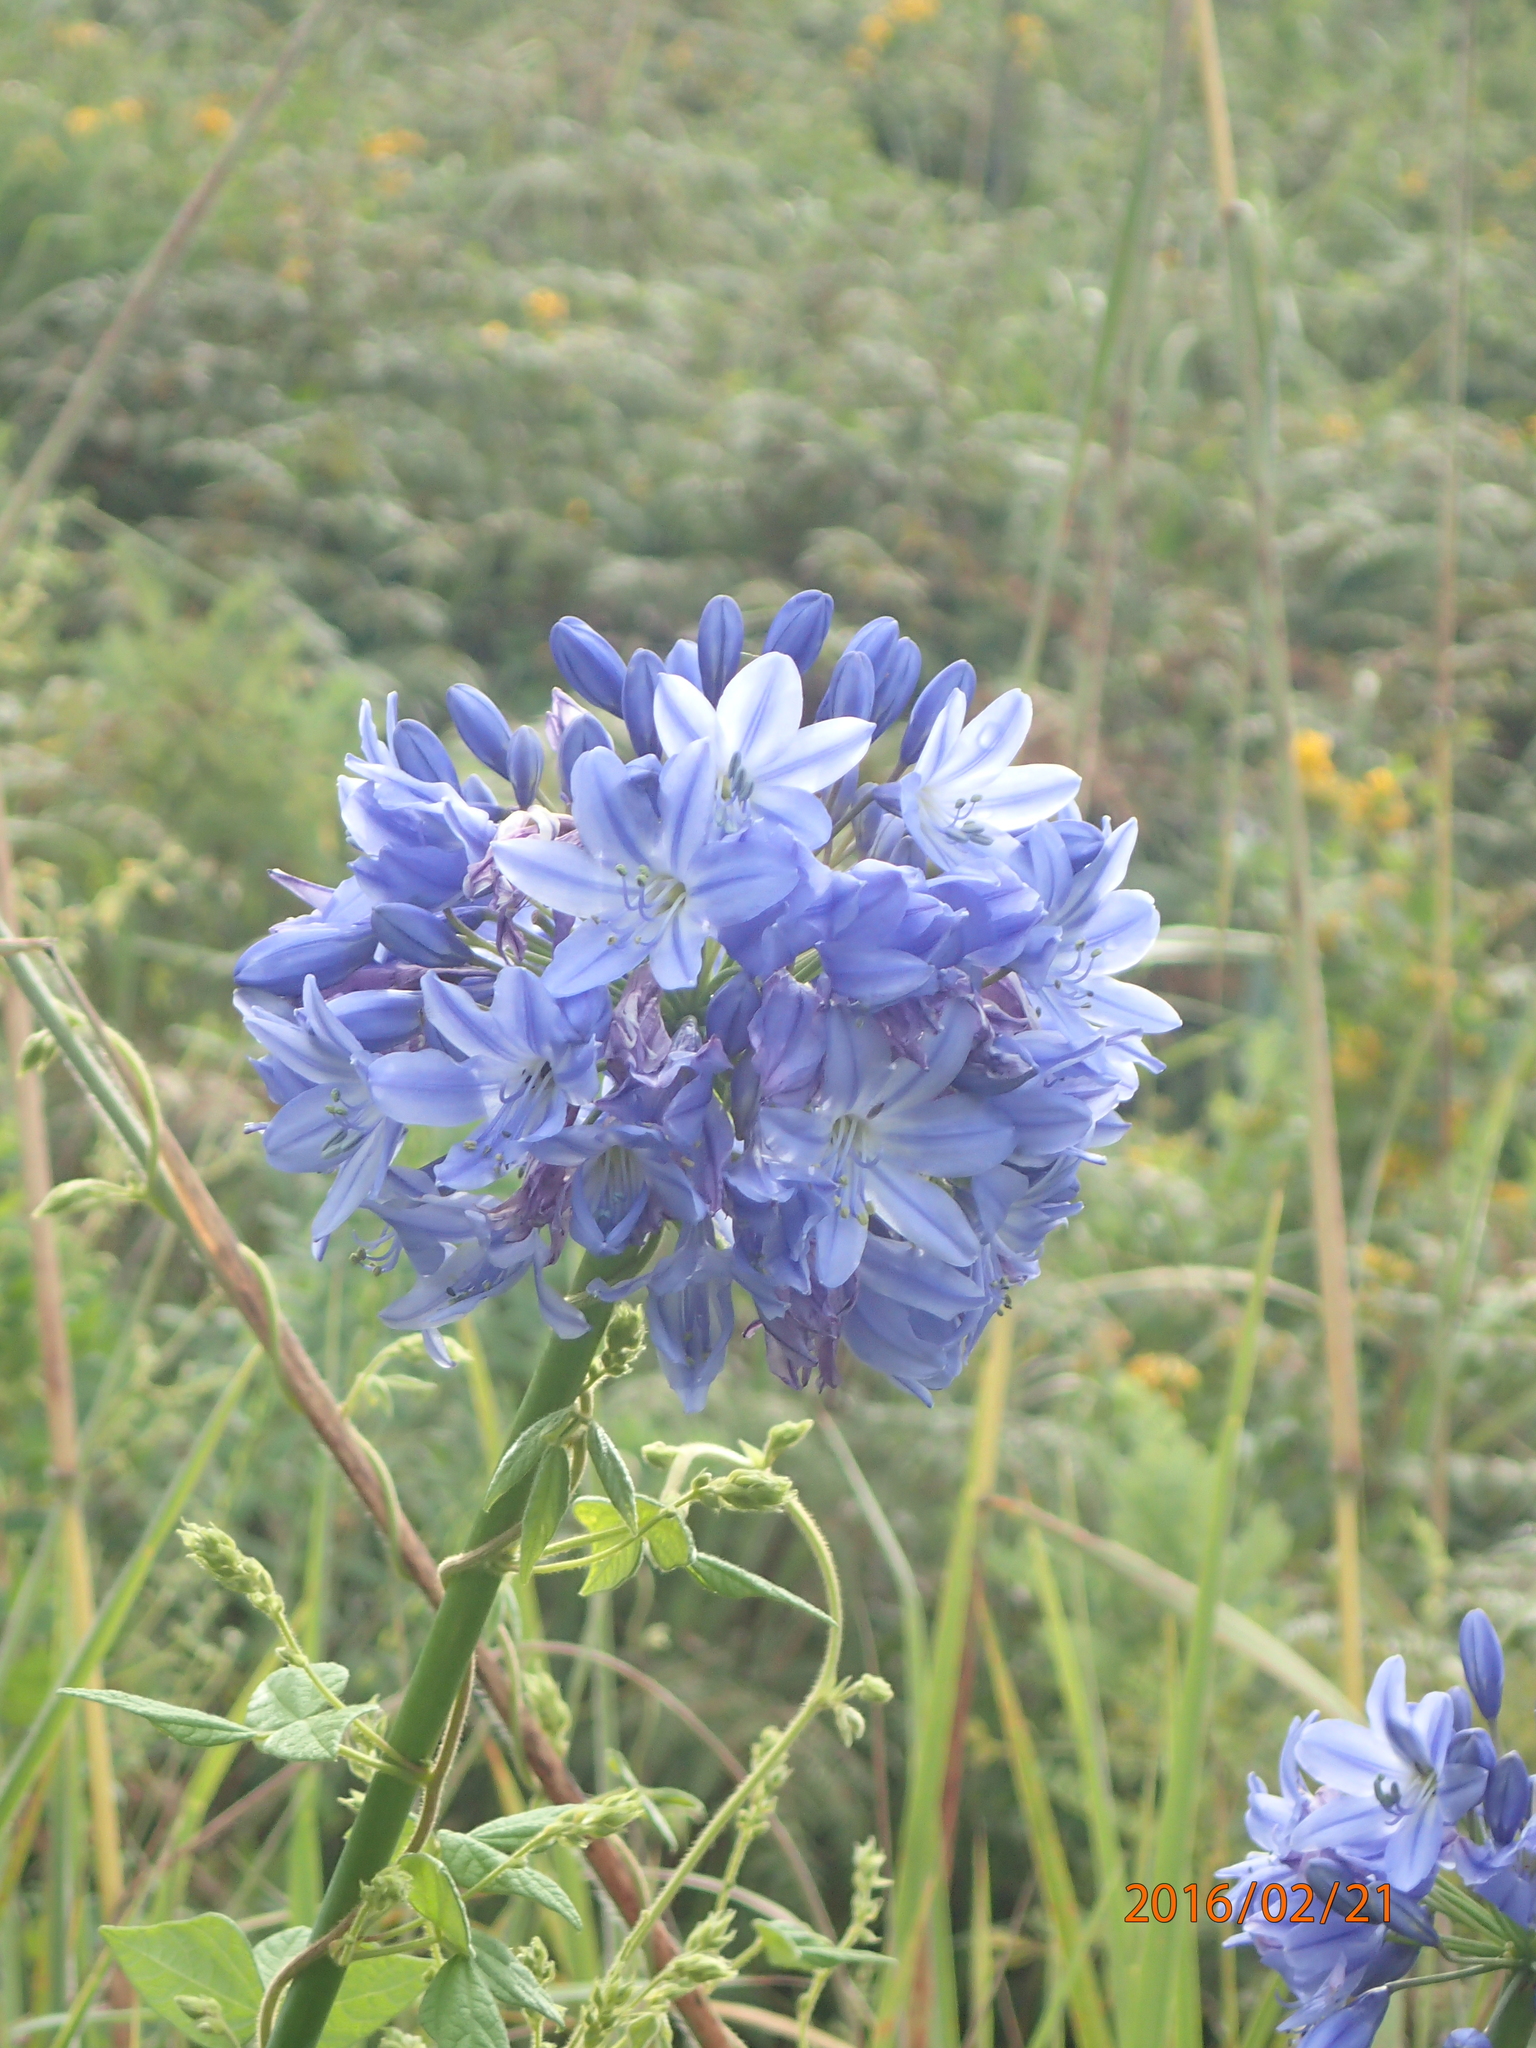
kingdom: Plantae
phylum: Tracheophyta
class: Liliopsida
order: Asparagales
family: Amaryllidaceae
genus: Agapanthus
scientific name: Agapanthus campanulatus
